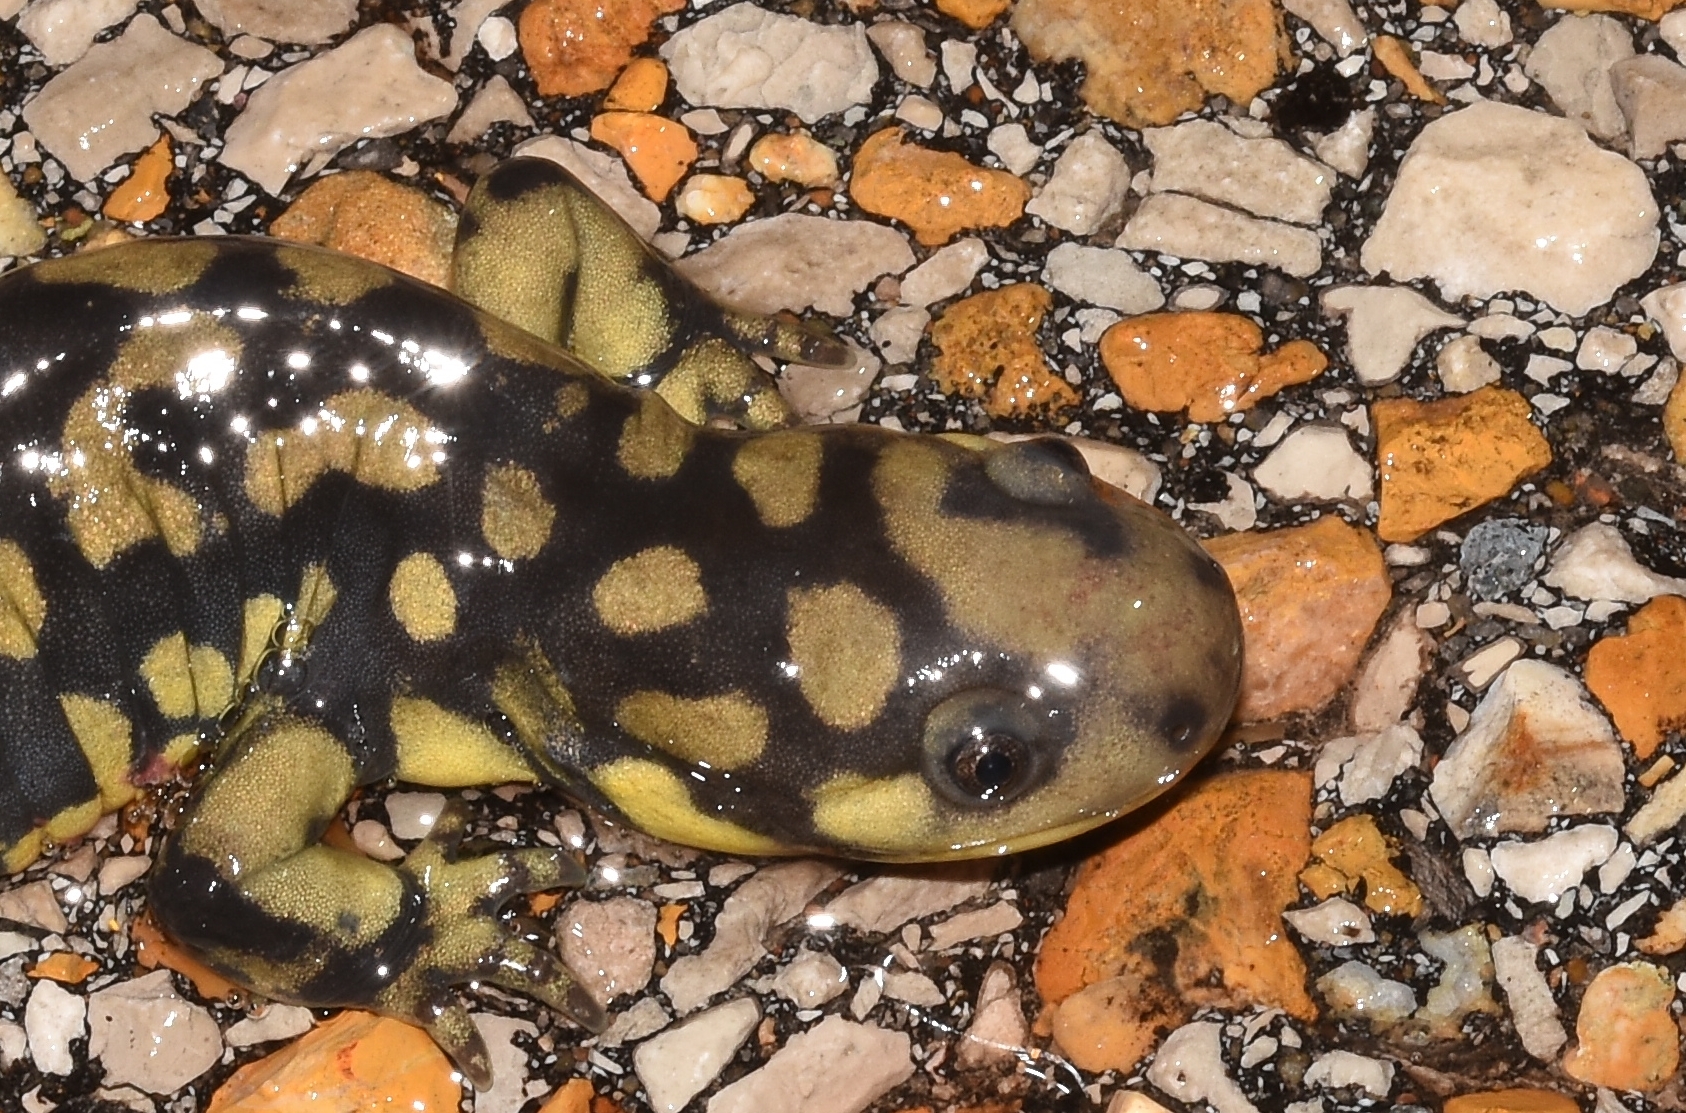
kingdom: Animalia
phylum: Chordata
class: Amphibia
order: Caudata
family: Ambystomatidae
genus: Ambystoma
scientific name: Ambystoma tigrinum
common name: Tiger salamander
